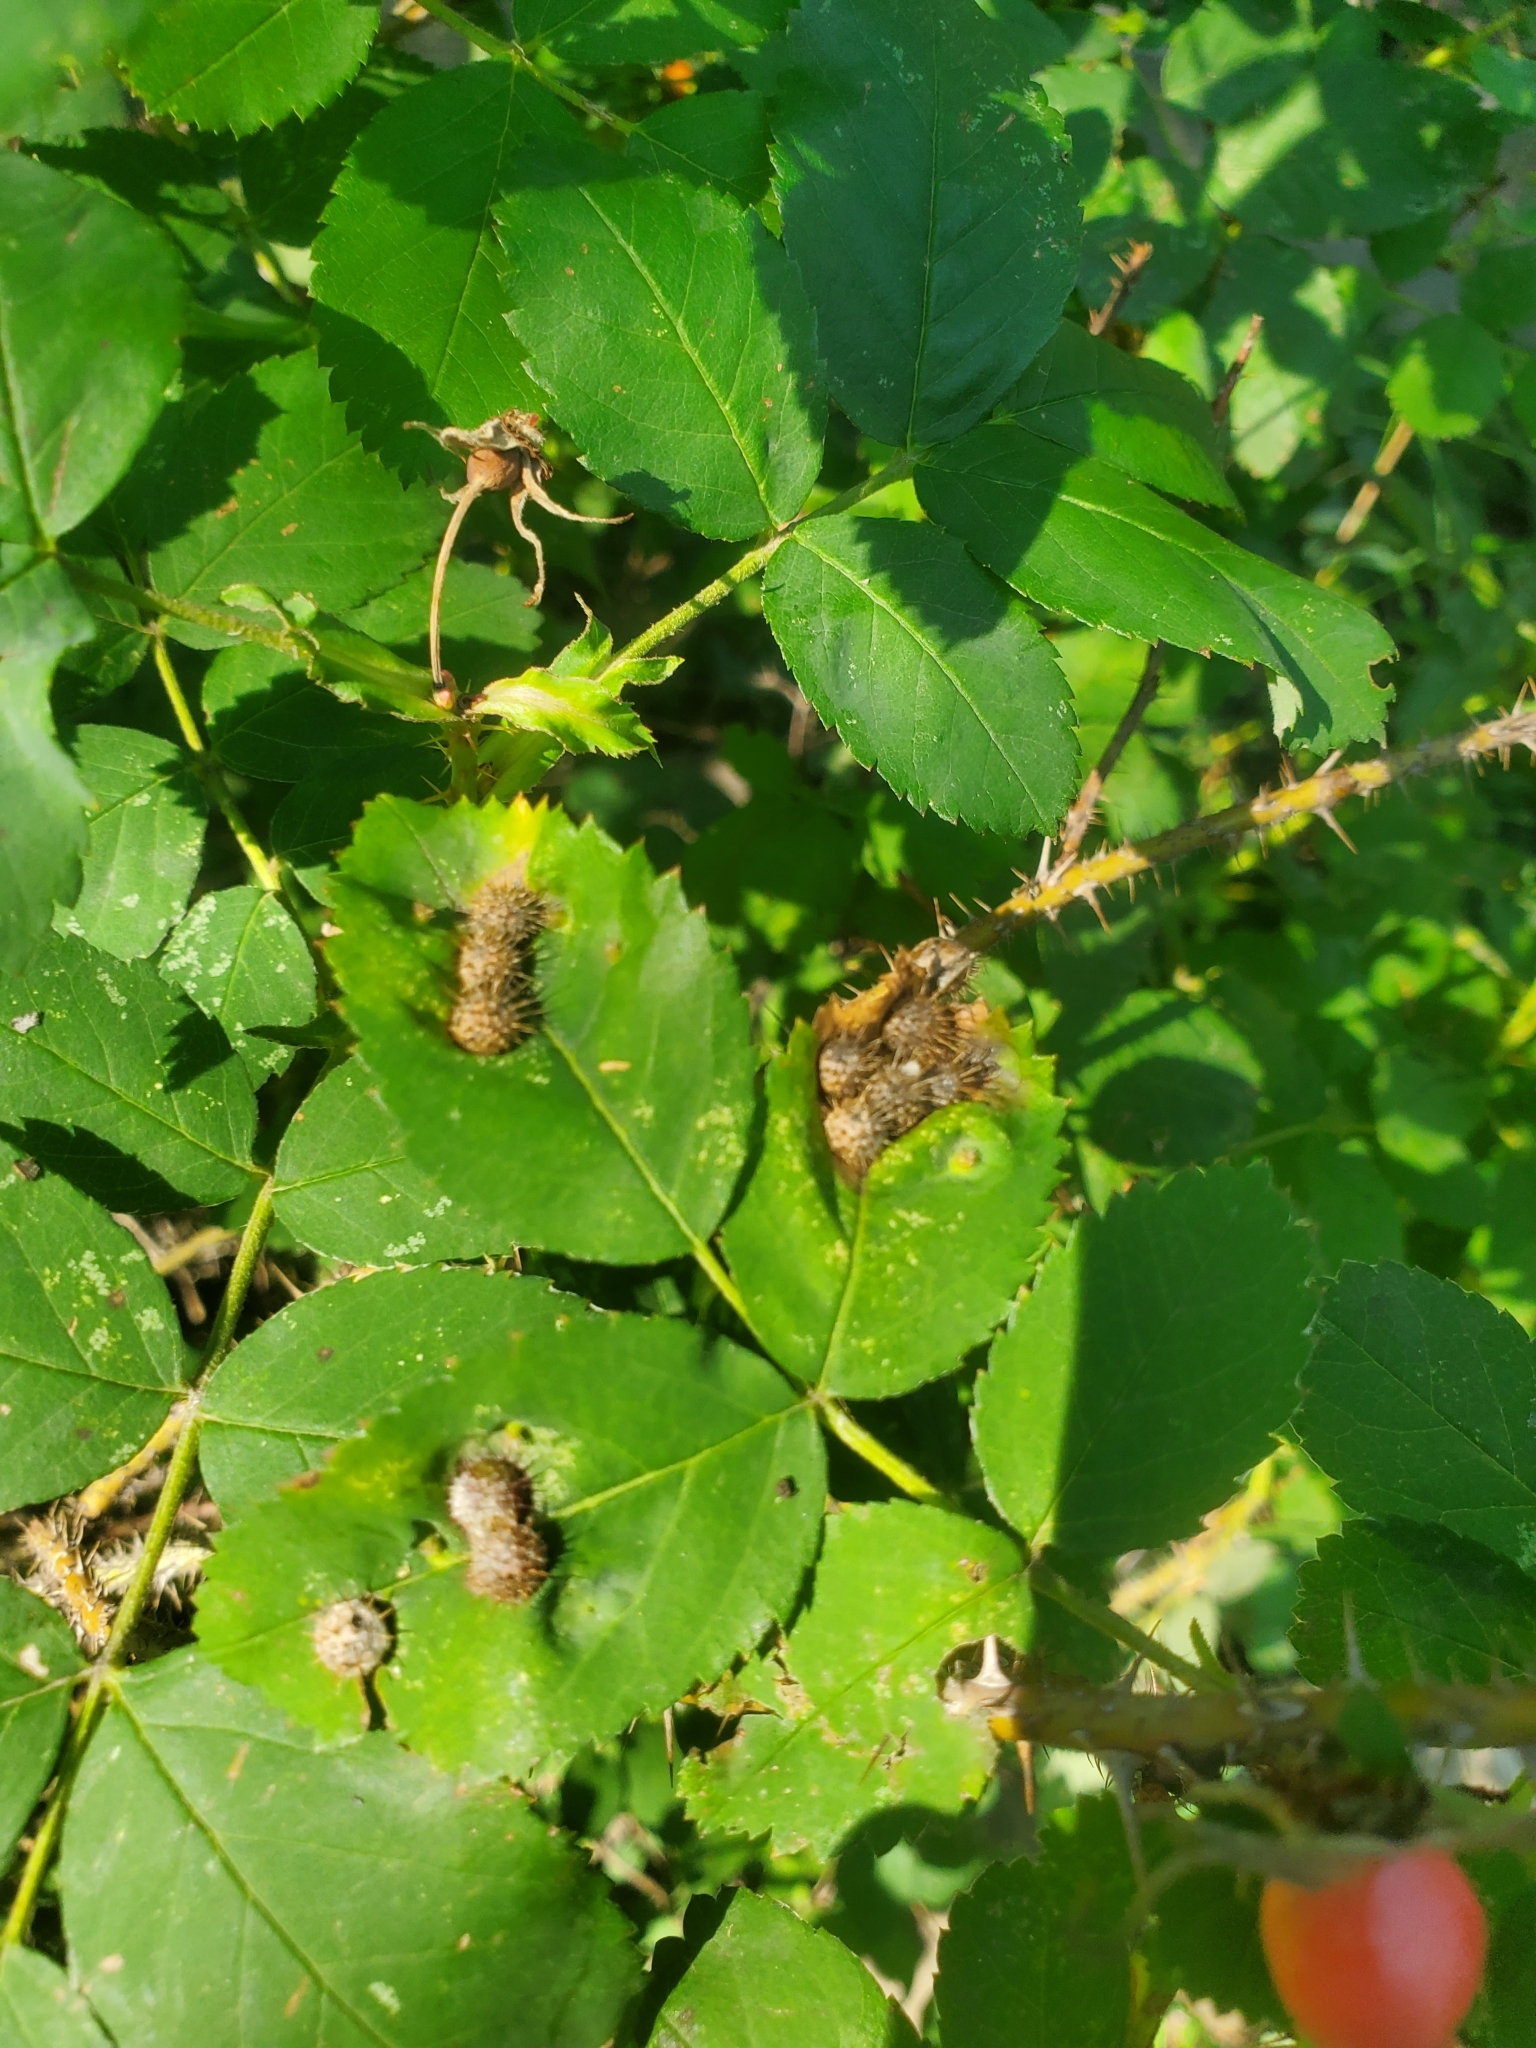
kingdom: Animalia
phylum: Arthropoda
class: Insecta
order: Hymenoptera
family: Cynipidae
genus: Diplolepis
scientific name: Diplolepis polita
